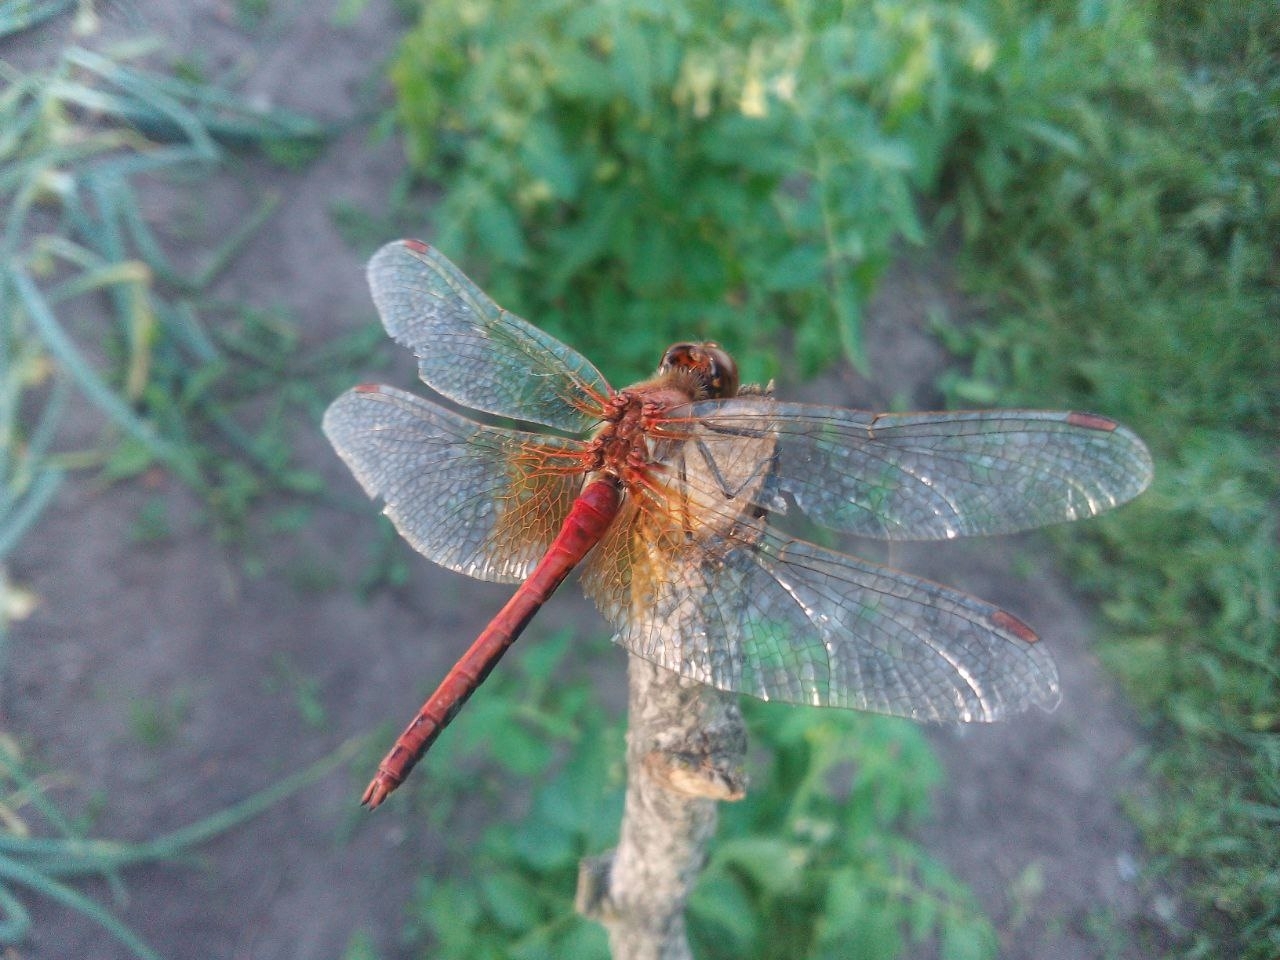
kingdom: Animalia
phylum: Arthropoda
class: Insecta
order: Odonata
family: Libellulidae
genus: Sympetrum
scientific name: Sympetrum flaveolum
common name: Yellow-winged darter
